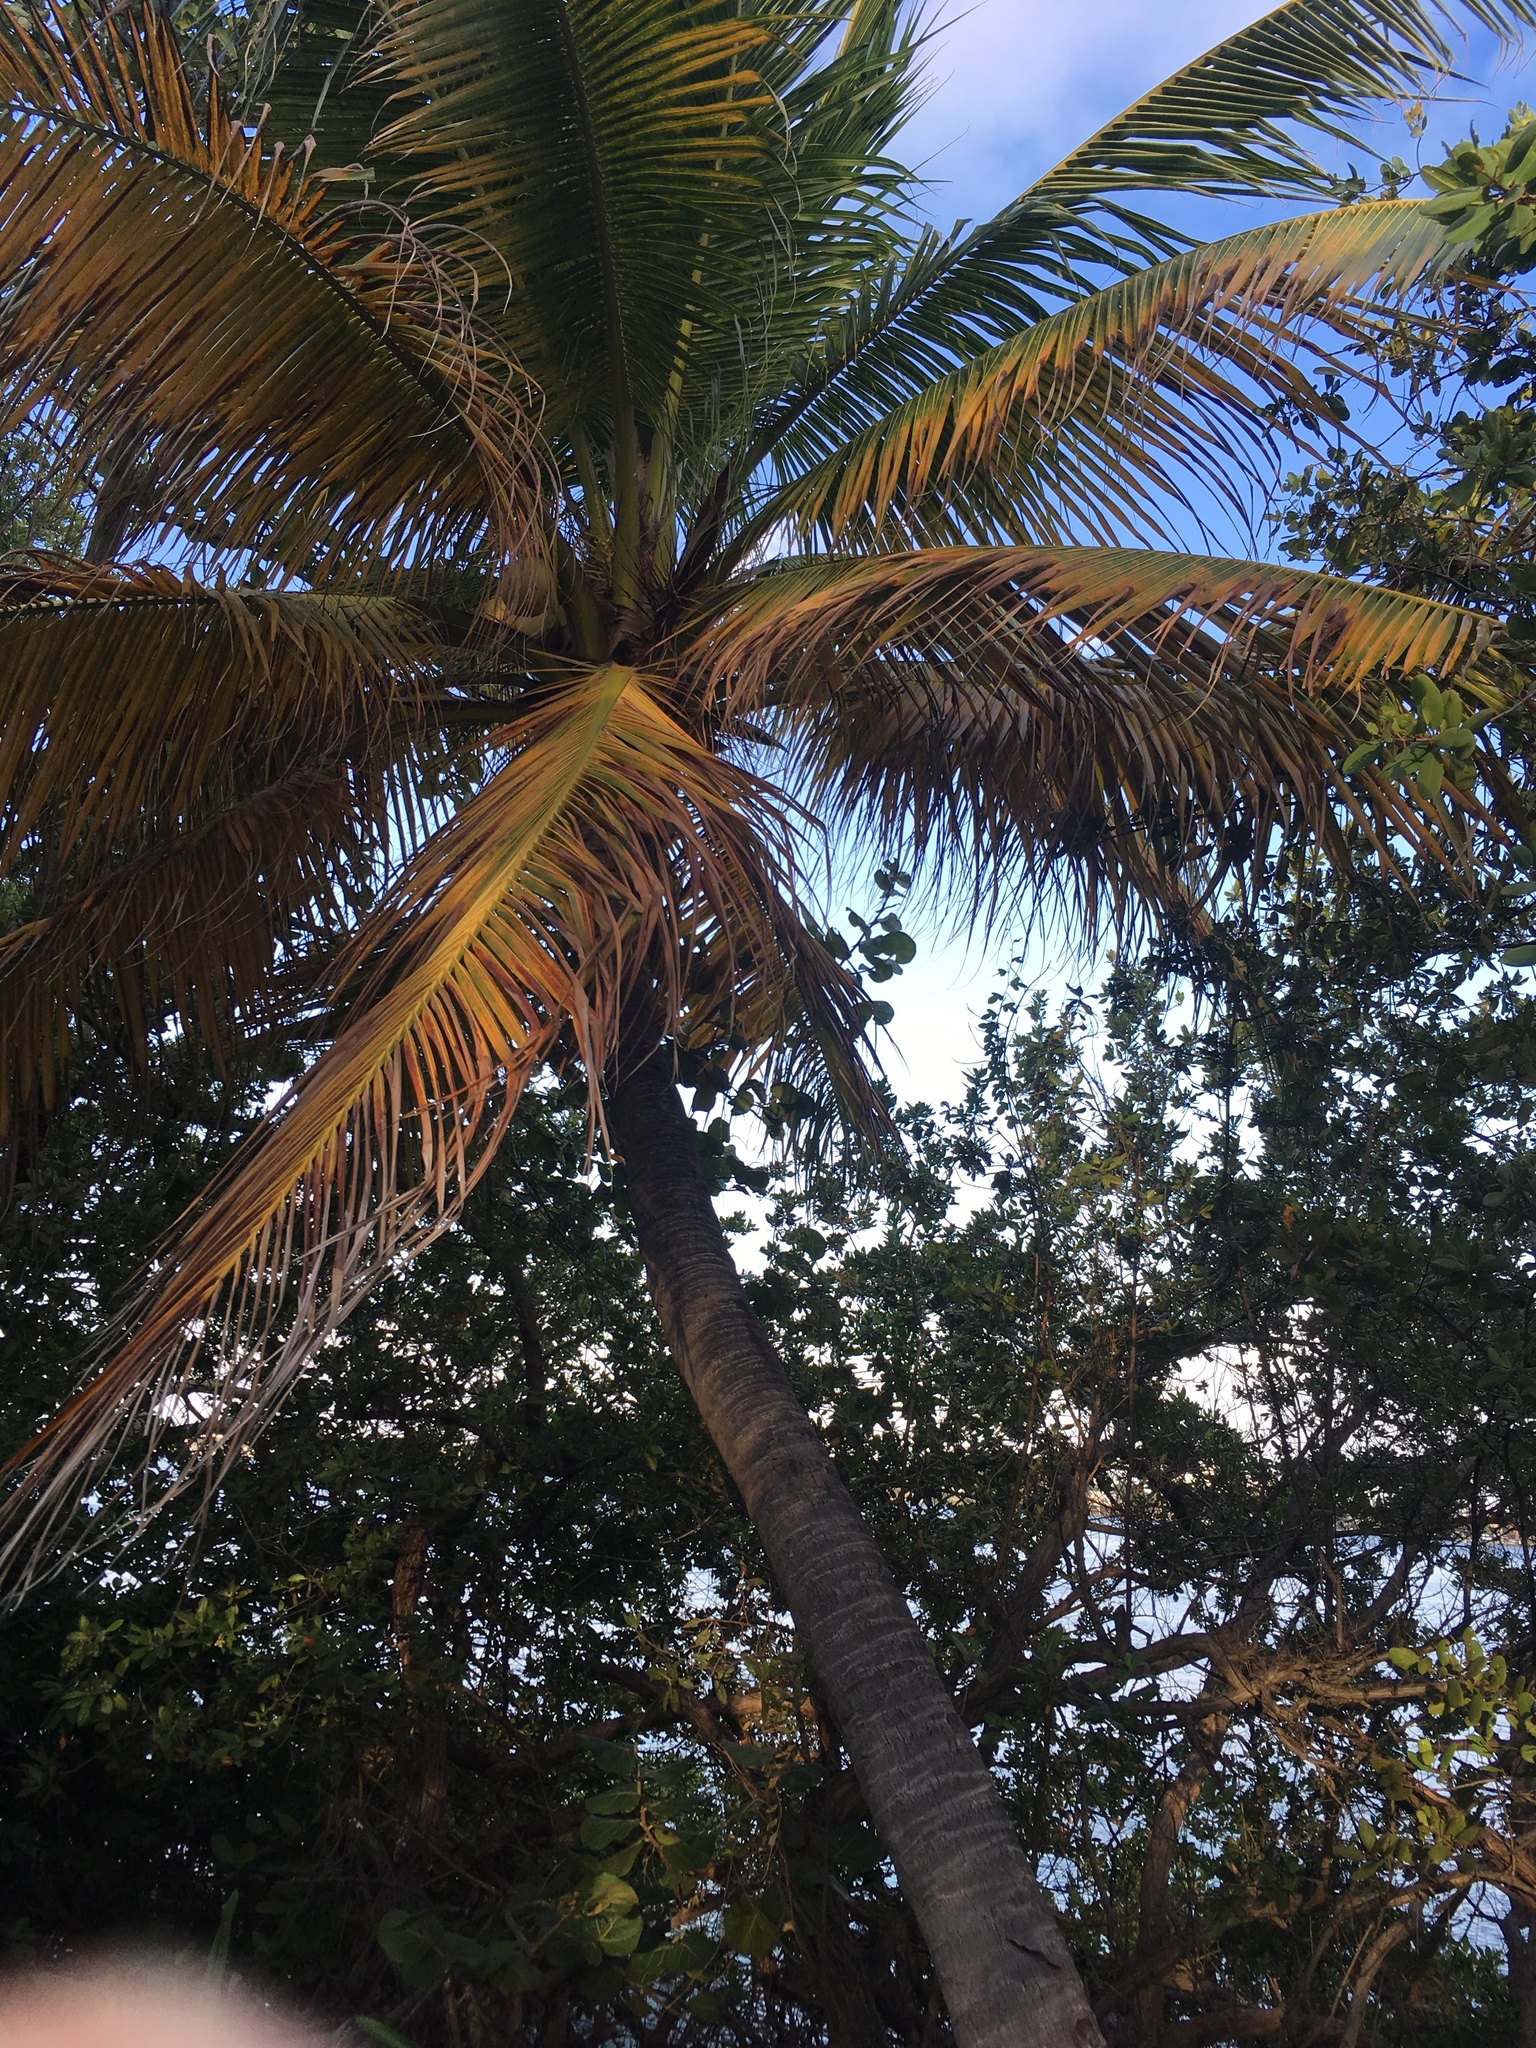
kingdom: Plantae
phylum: Tracheophyta
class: Liliopsida
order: Arecales
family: Arecaceae
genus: Cocos
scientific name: Cocos nucifera
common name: Coconut palm
